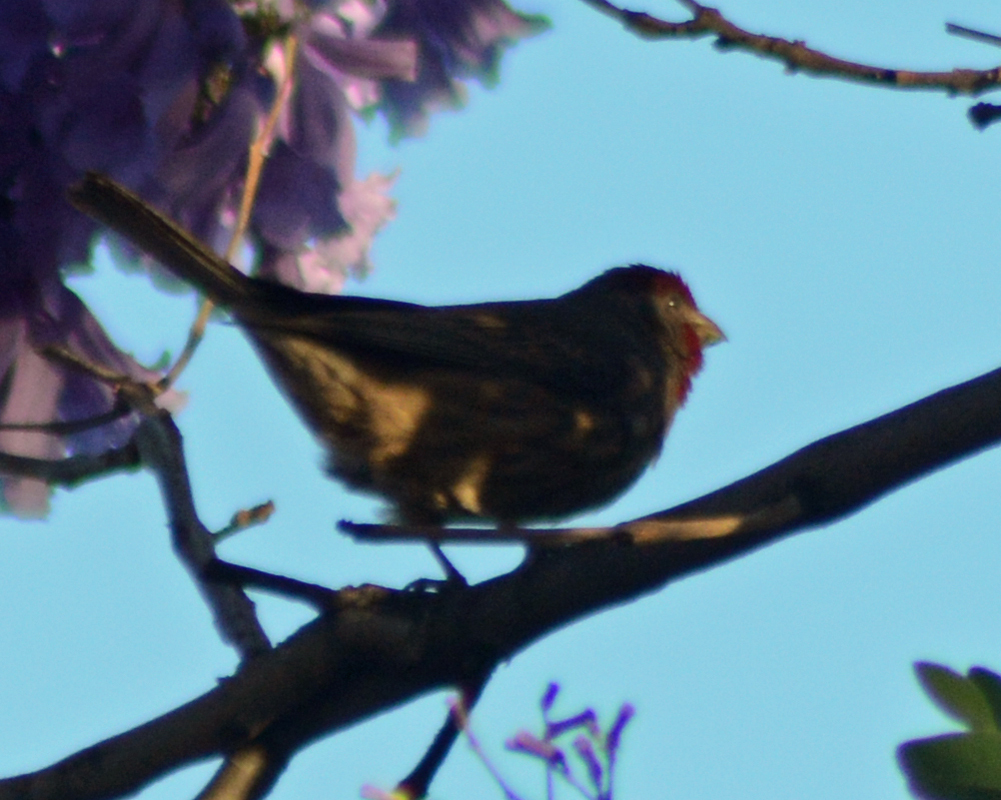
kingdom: Animalia
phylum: Chordata
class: Aves
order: Passeriformes
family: Fringillidae
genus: Haemorhous
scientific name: Haemorhous mexicanus
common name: House finch
